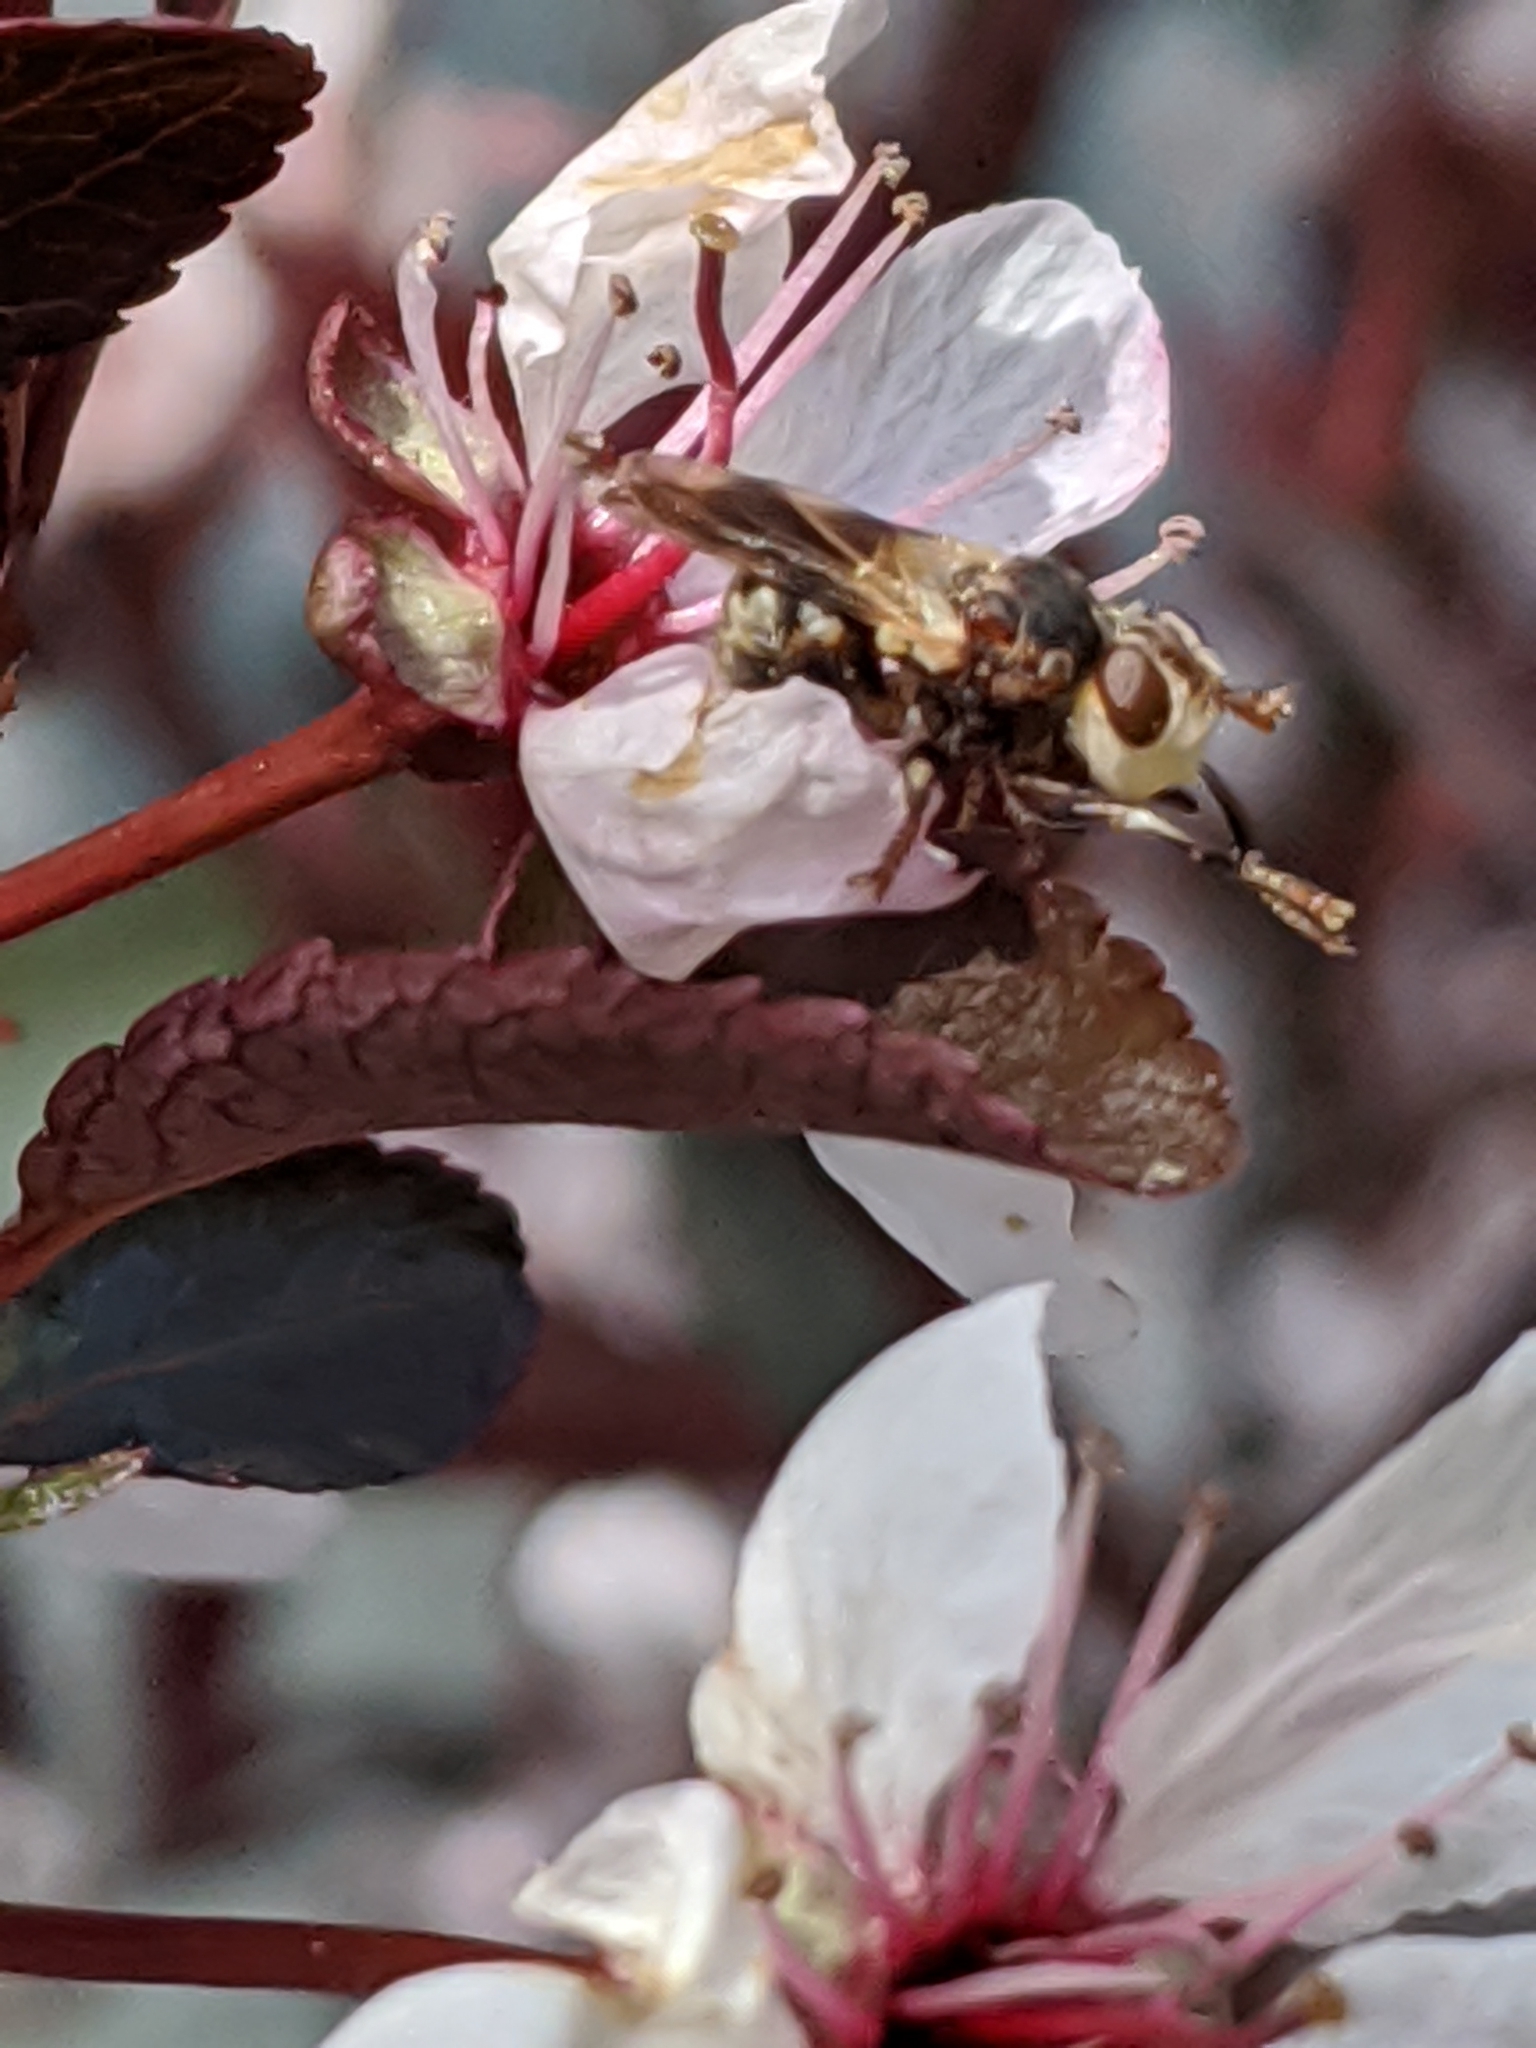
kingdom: Animalia
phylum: Arthropoda
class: Insecta
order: Diptera
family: Conopidae
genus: Myopa
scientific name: Myopa
